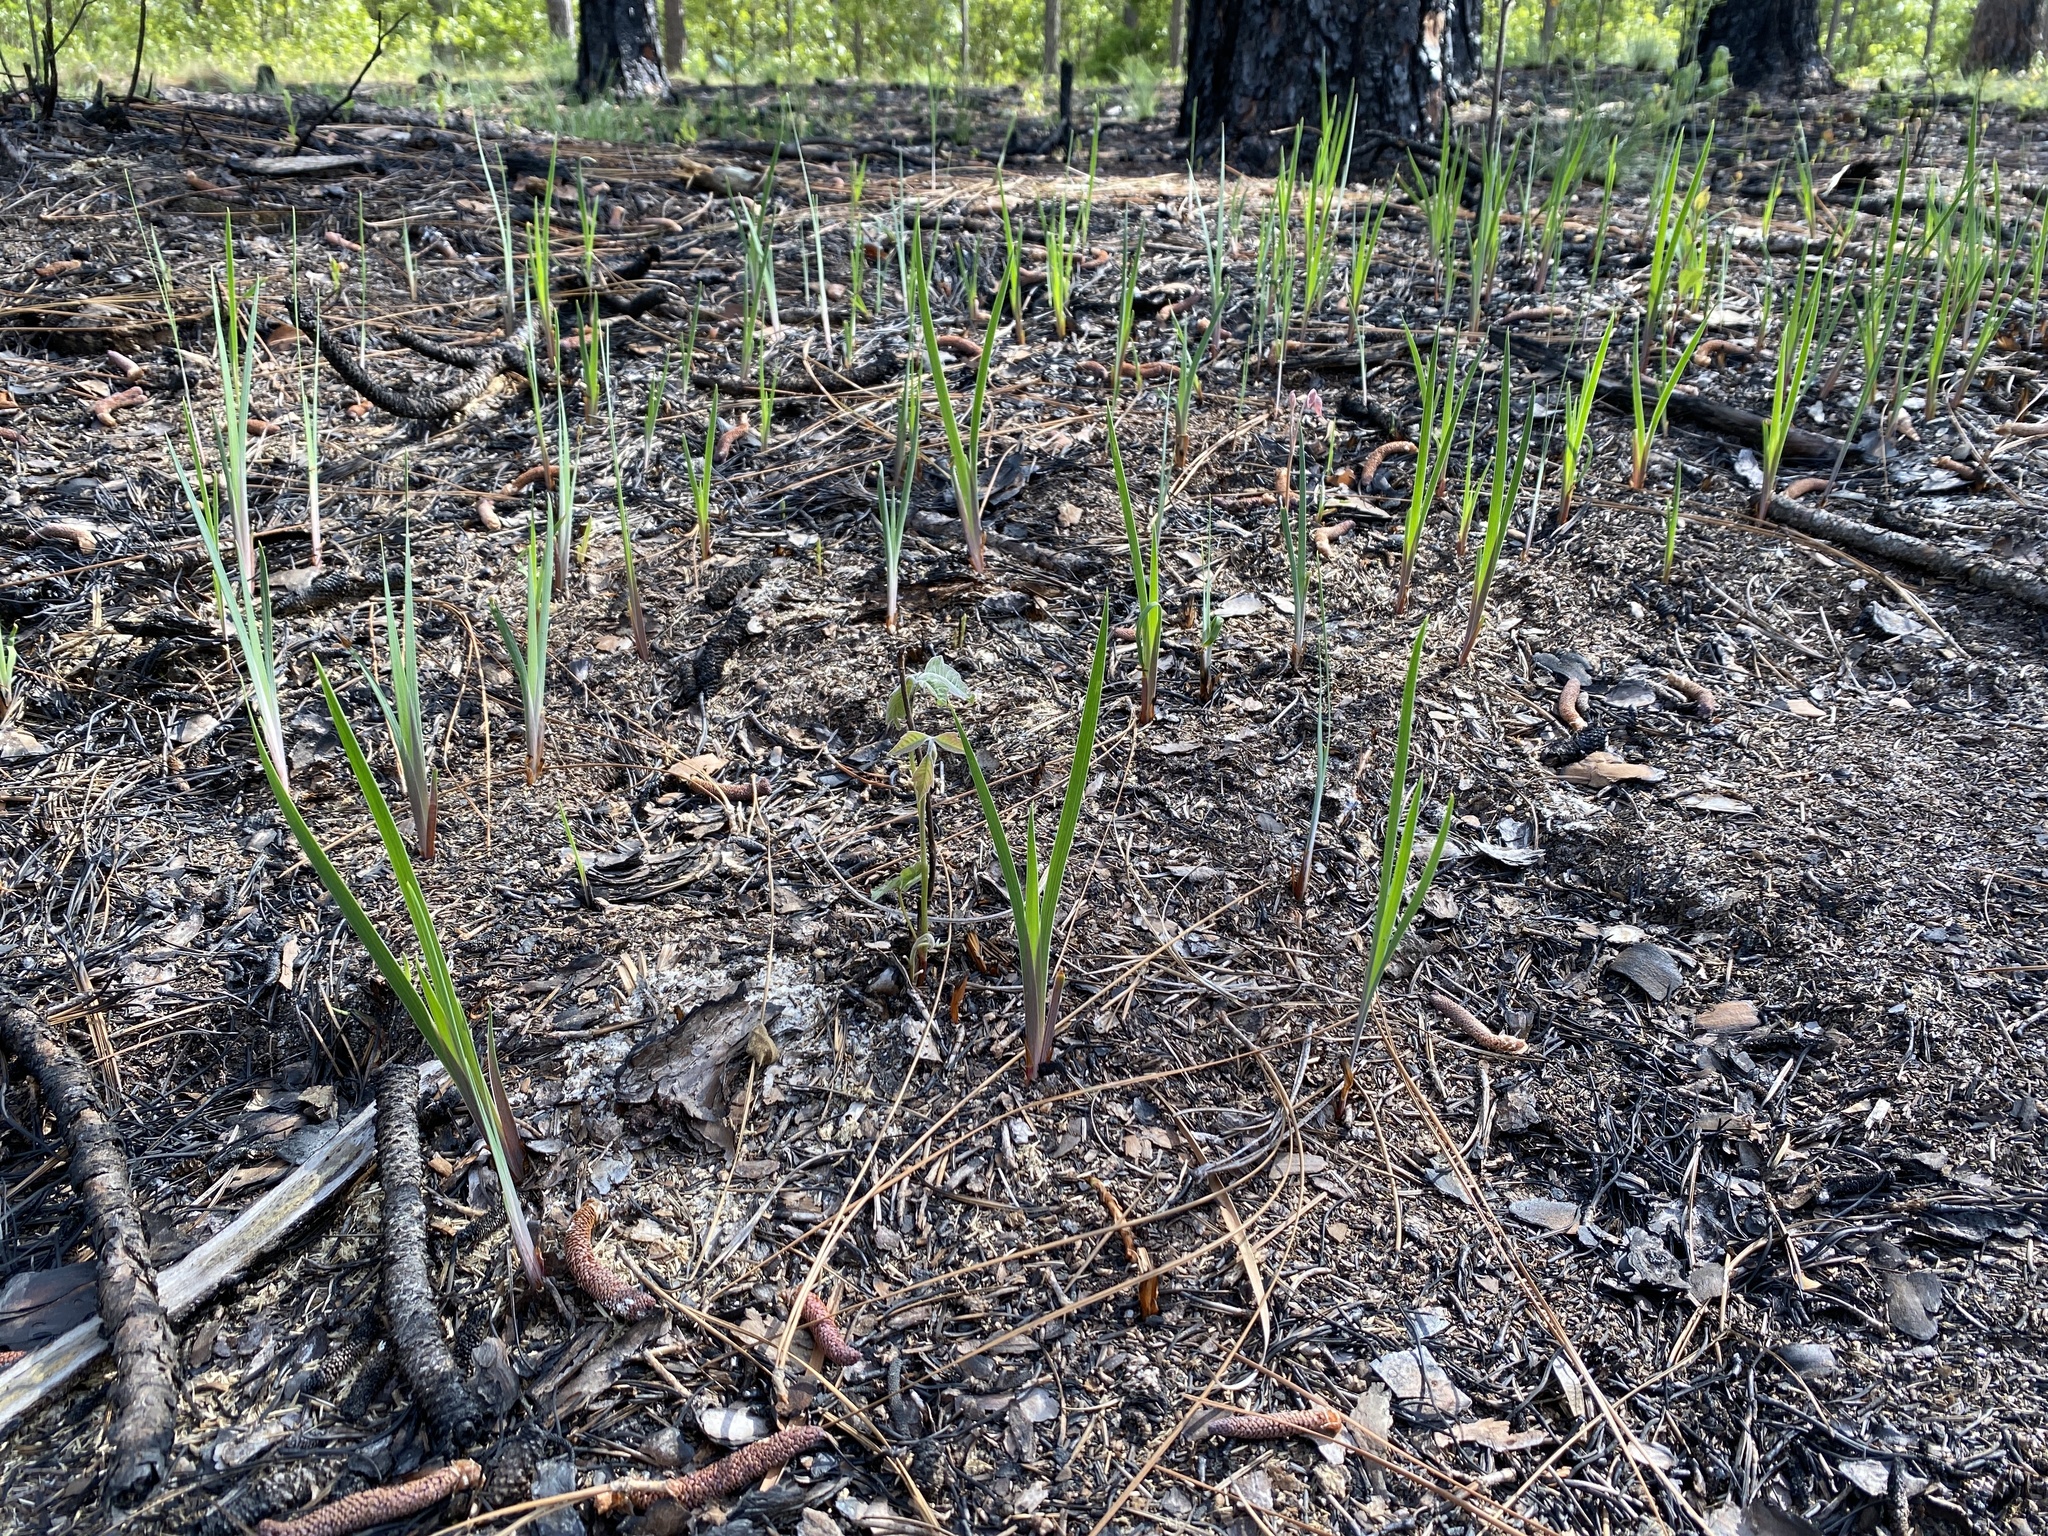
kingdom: Plantae
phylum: Tracheophyta
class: Liliopsida
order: Asparagales
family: Iridaceae
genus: Iris
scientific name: Iris verna
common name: Dwarf iris
